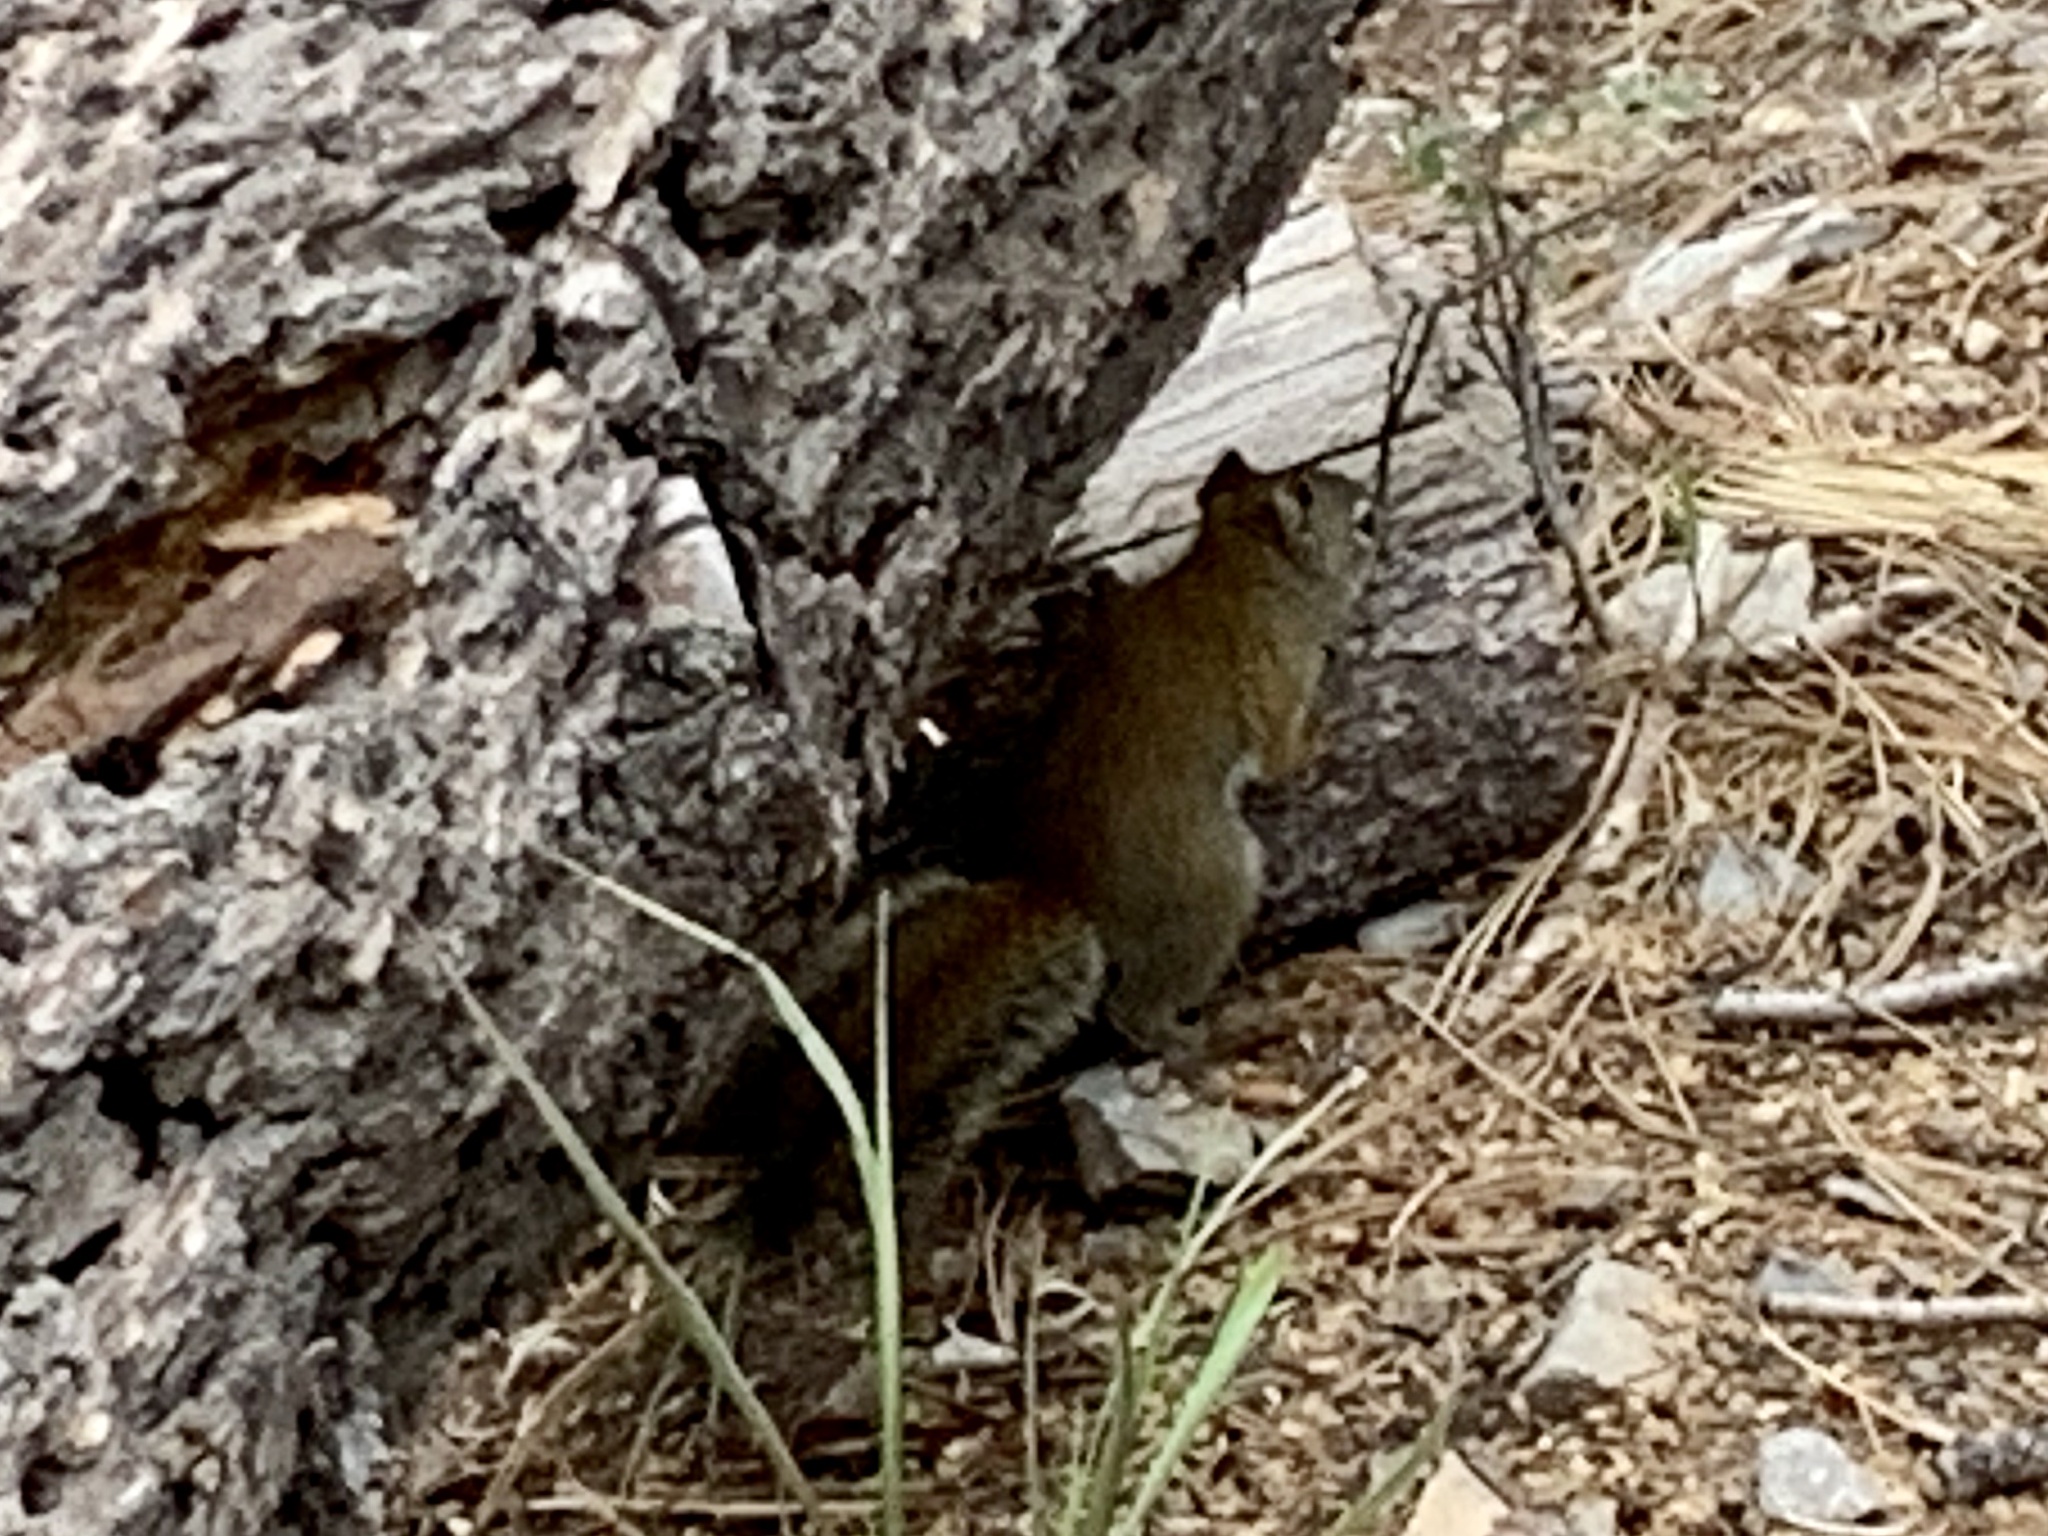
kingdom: Animalia
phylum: Chordata
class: Mammalia
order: Rodentia
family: Sciuridae
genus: Tamiasciurus
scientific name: Tamiasciurus hudsonicus
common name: Red squirrel
